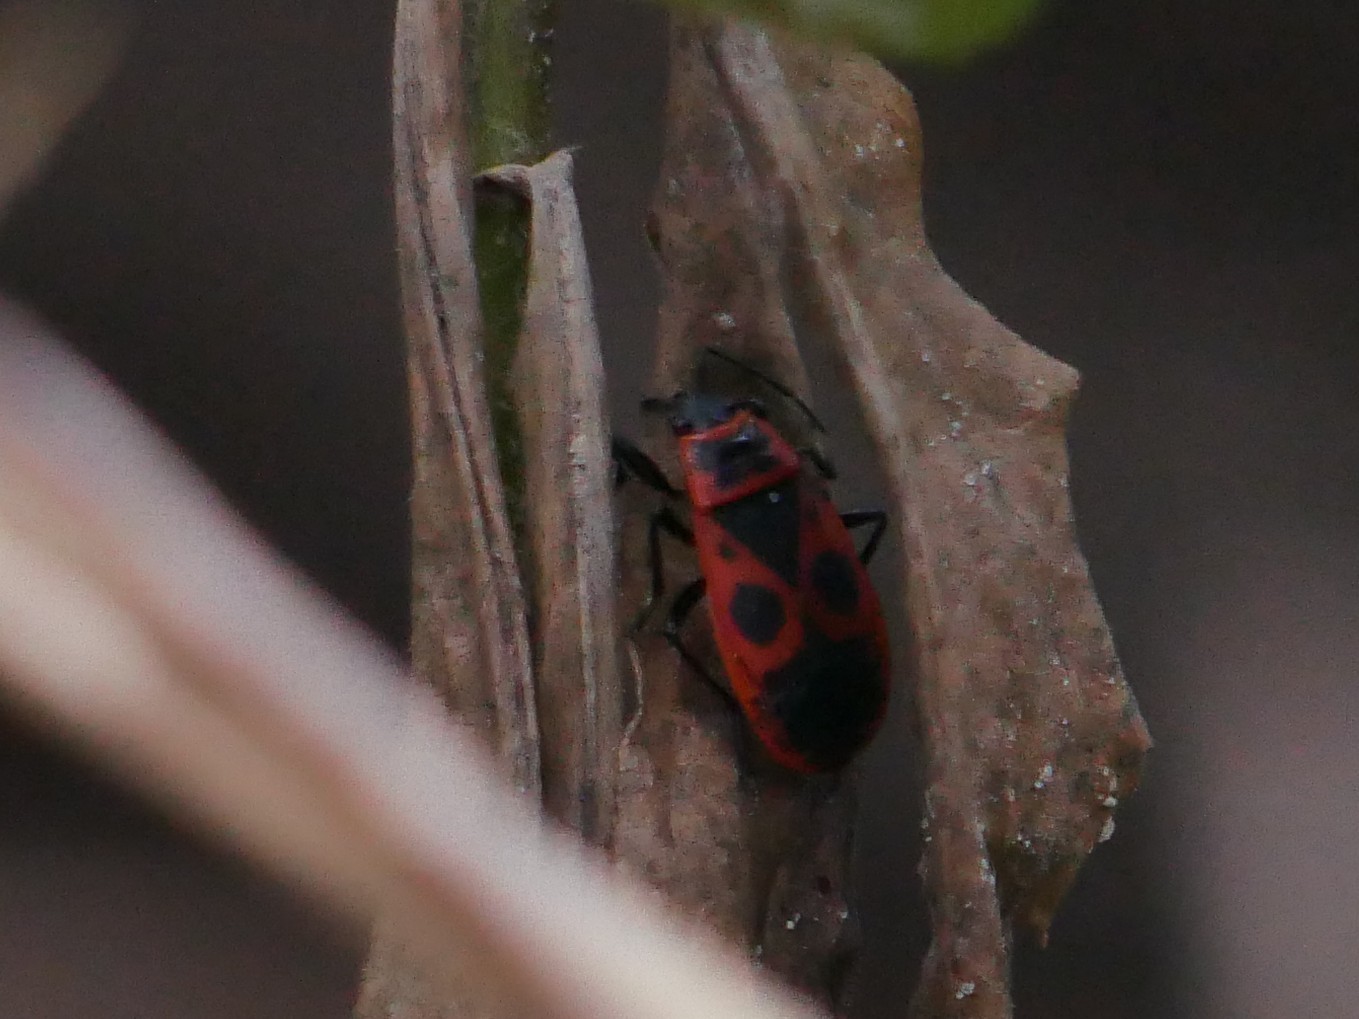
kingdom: Animalia
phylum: Arthropoda
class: Insecta
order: Hemiptera
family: Pyrrhocoridae
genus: Pyrrhocoris
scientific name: Pyrrhocoris apterus
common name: Firebug
